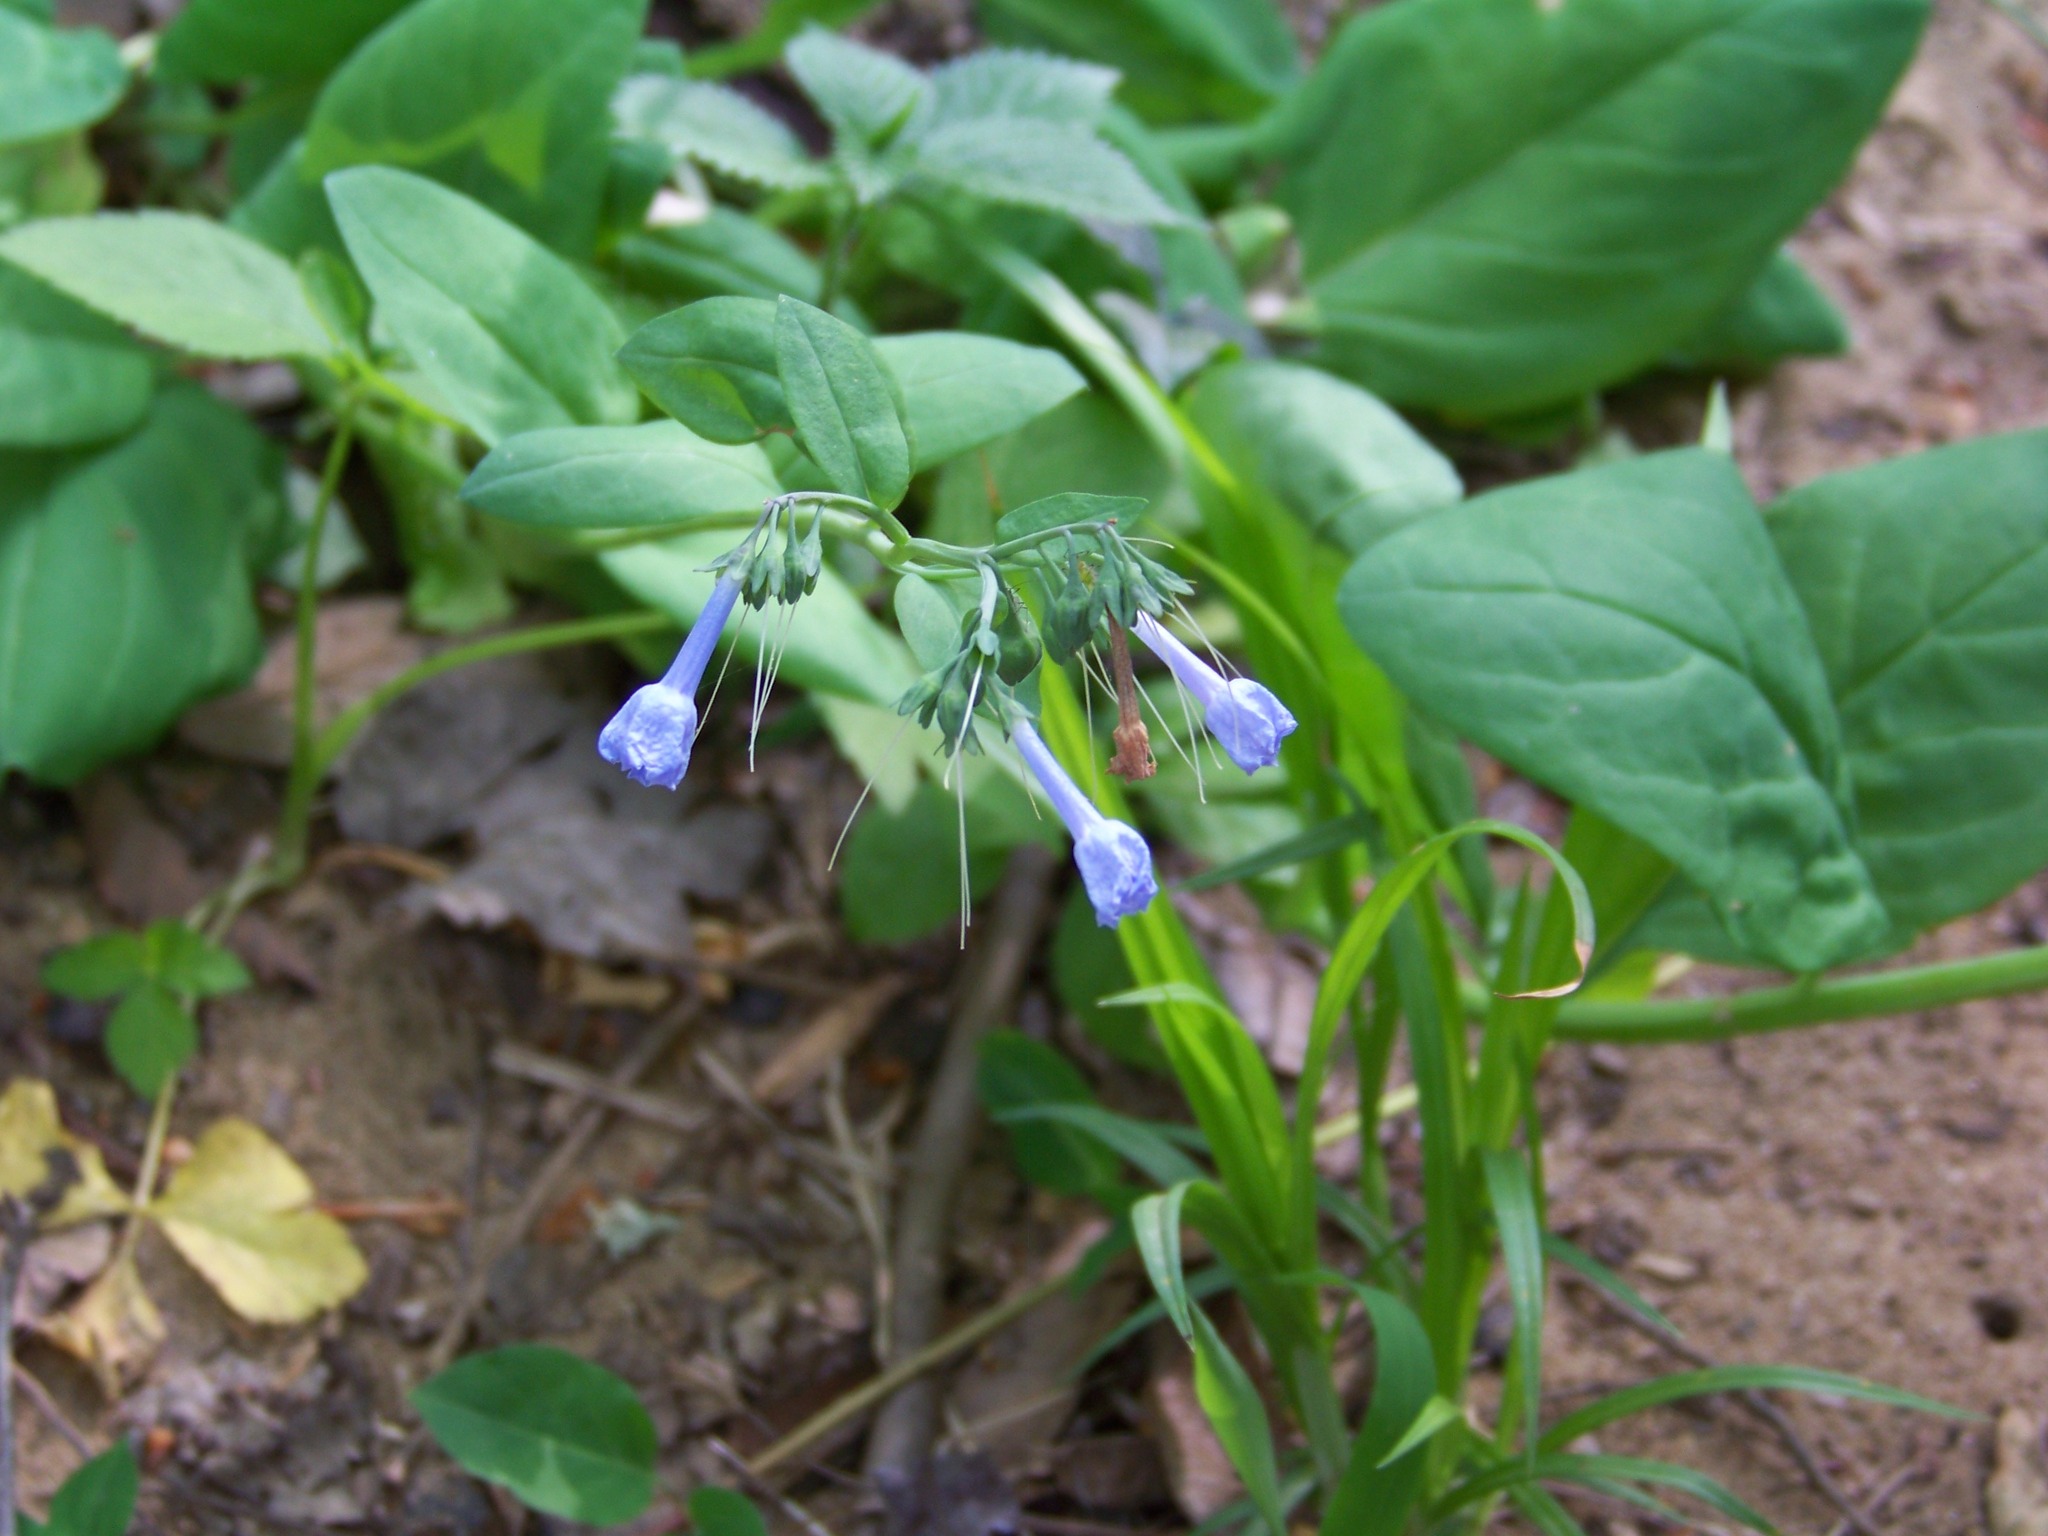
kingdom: Plantae
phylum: Tracheophyta
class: Magnoliopsida
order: Boraginales
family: Boraginaceae
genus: Mertensia
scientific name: Mertensia virginica
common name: Virginia bluebells
